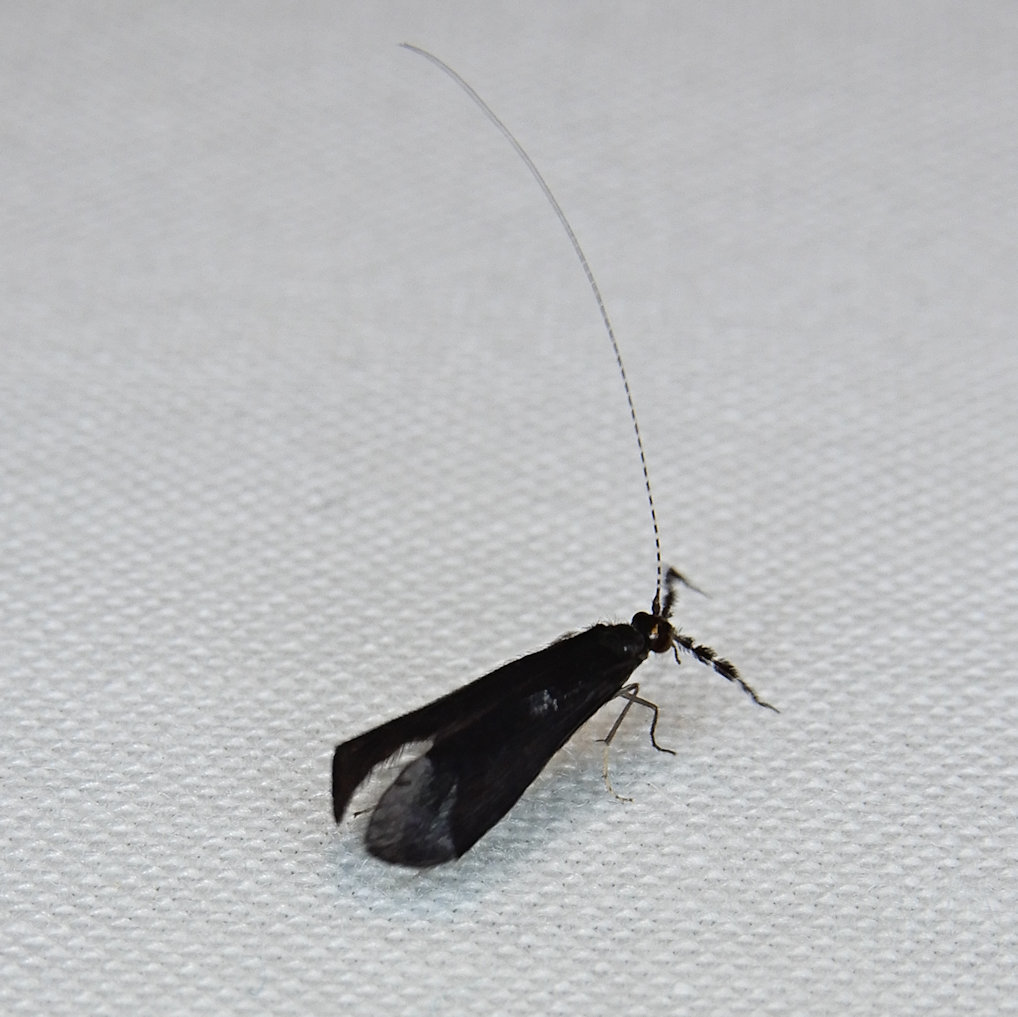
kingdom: Animalia
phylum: Arthropoda
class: Insecta
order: Trichoptera
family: Leptoceridae
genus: Mystacides
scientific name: Mystacides sepulchralis
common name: Black dancer caddisfly
